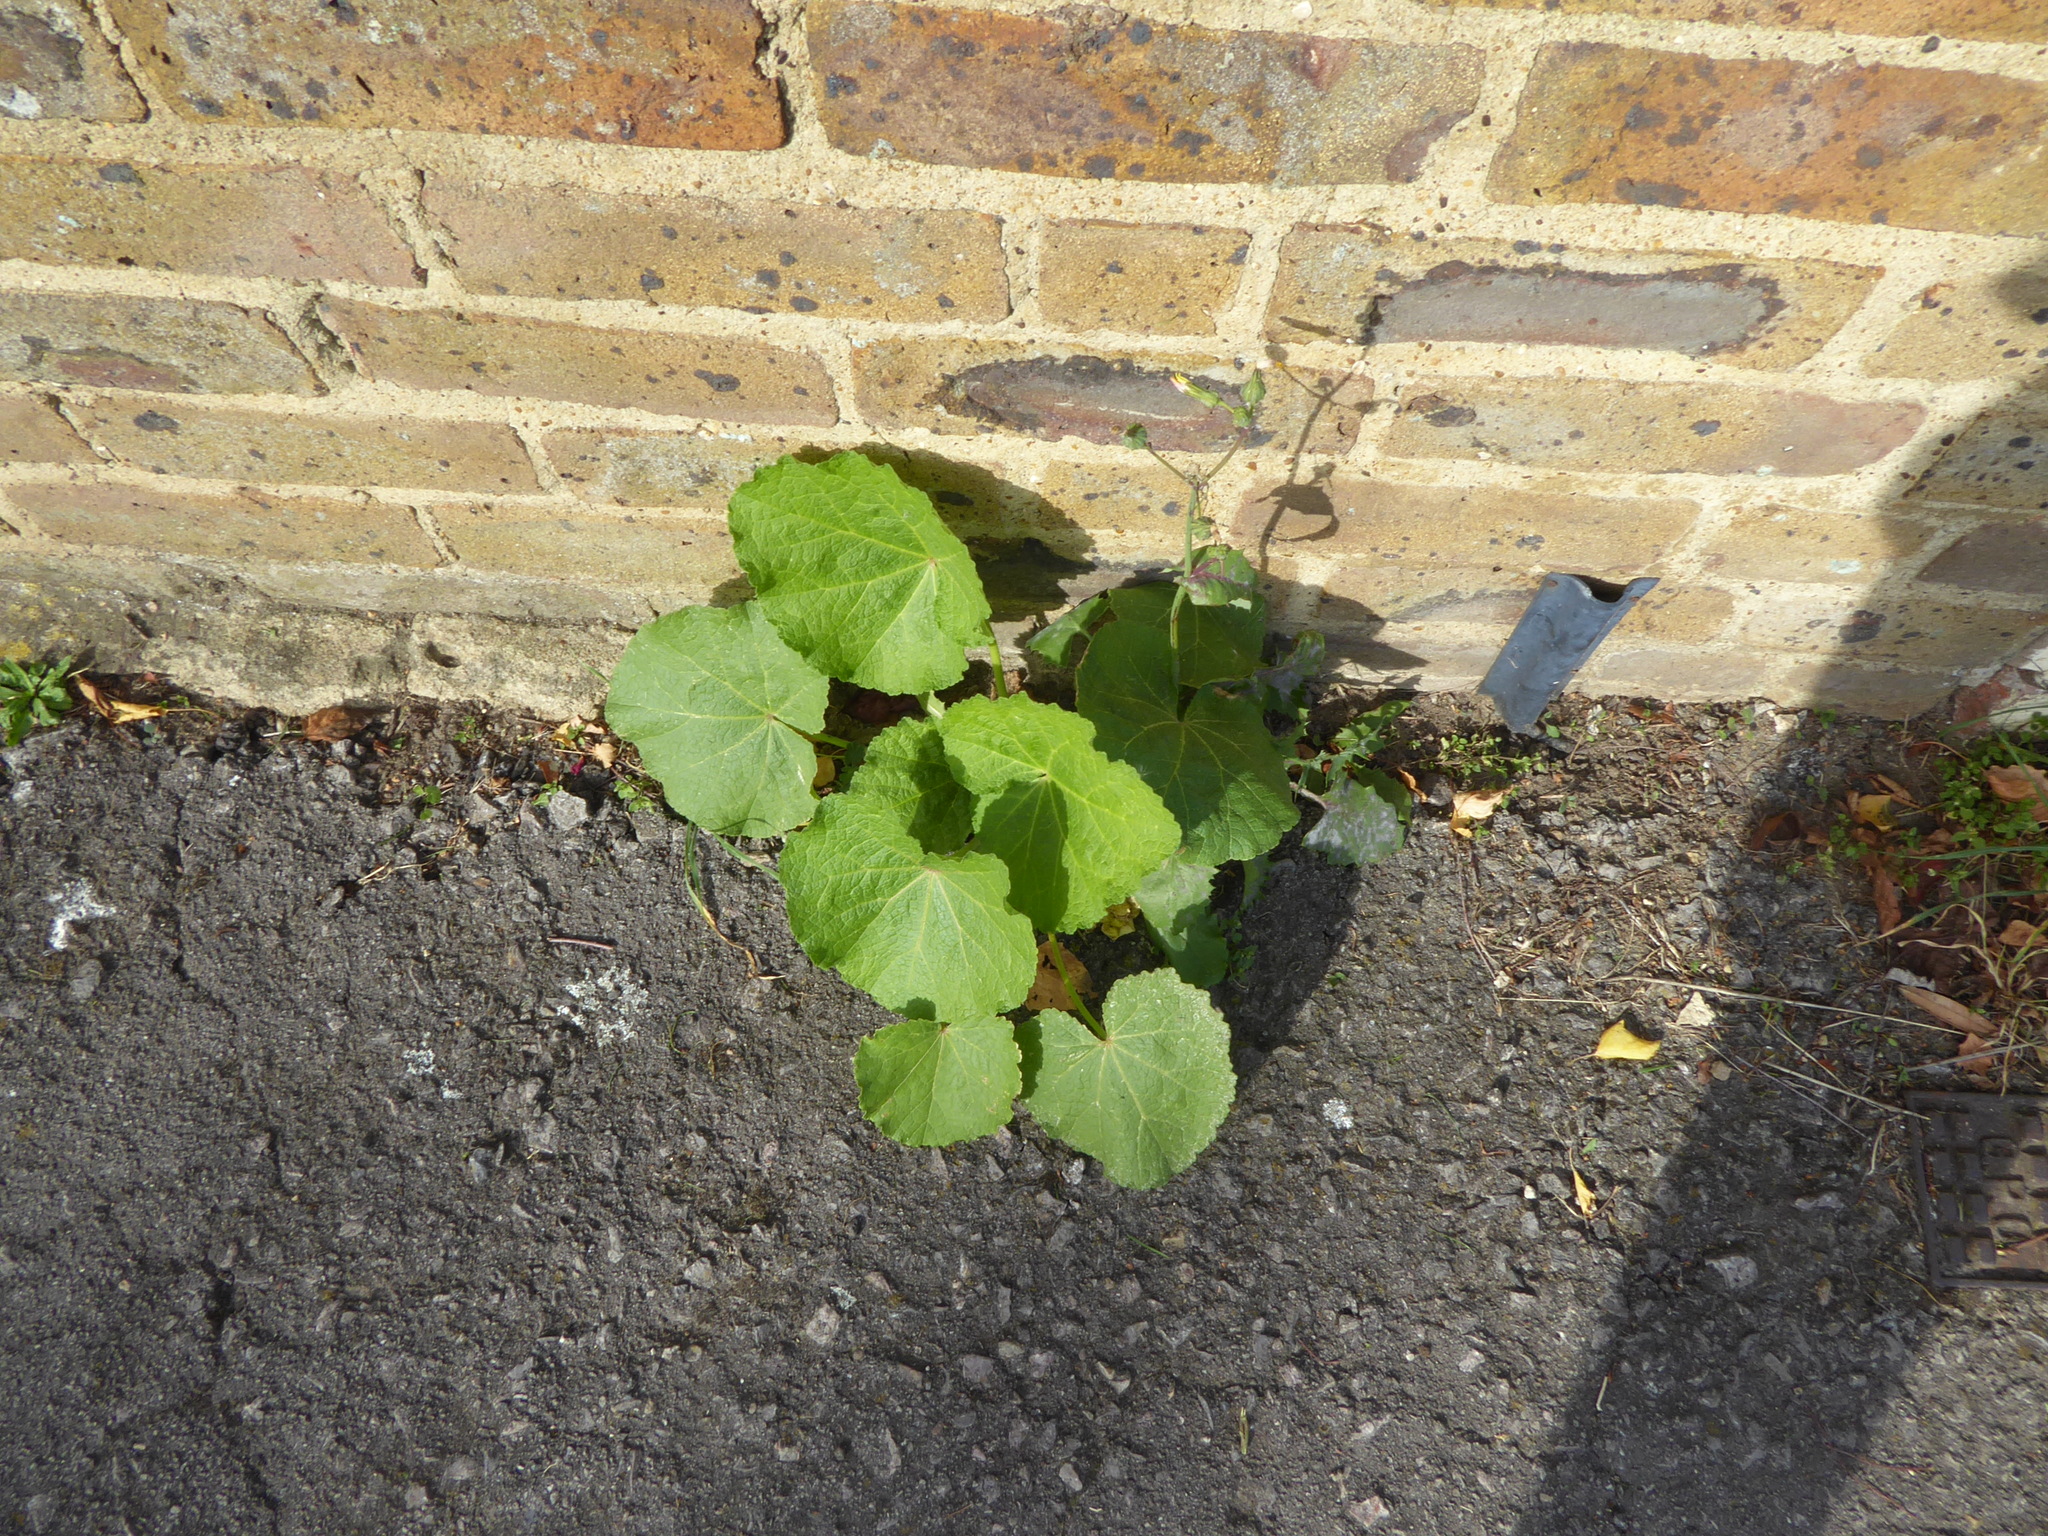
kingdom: Plantae
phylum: Tracheophyta
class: Magnoliopsida
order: Malvales
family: Malvaceae
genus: Alcea
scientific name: Alcea rosea
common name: Hollyhock
